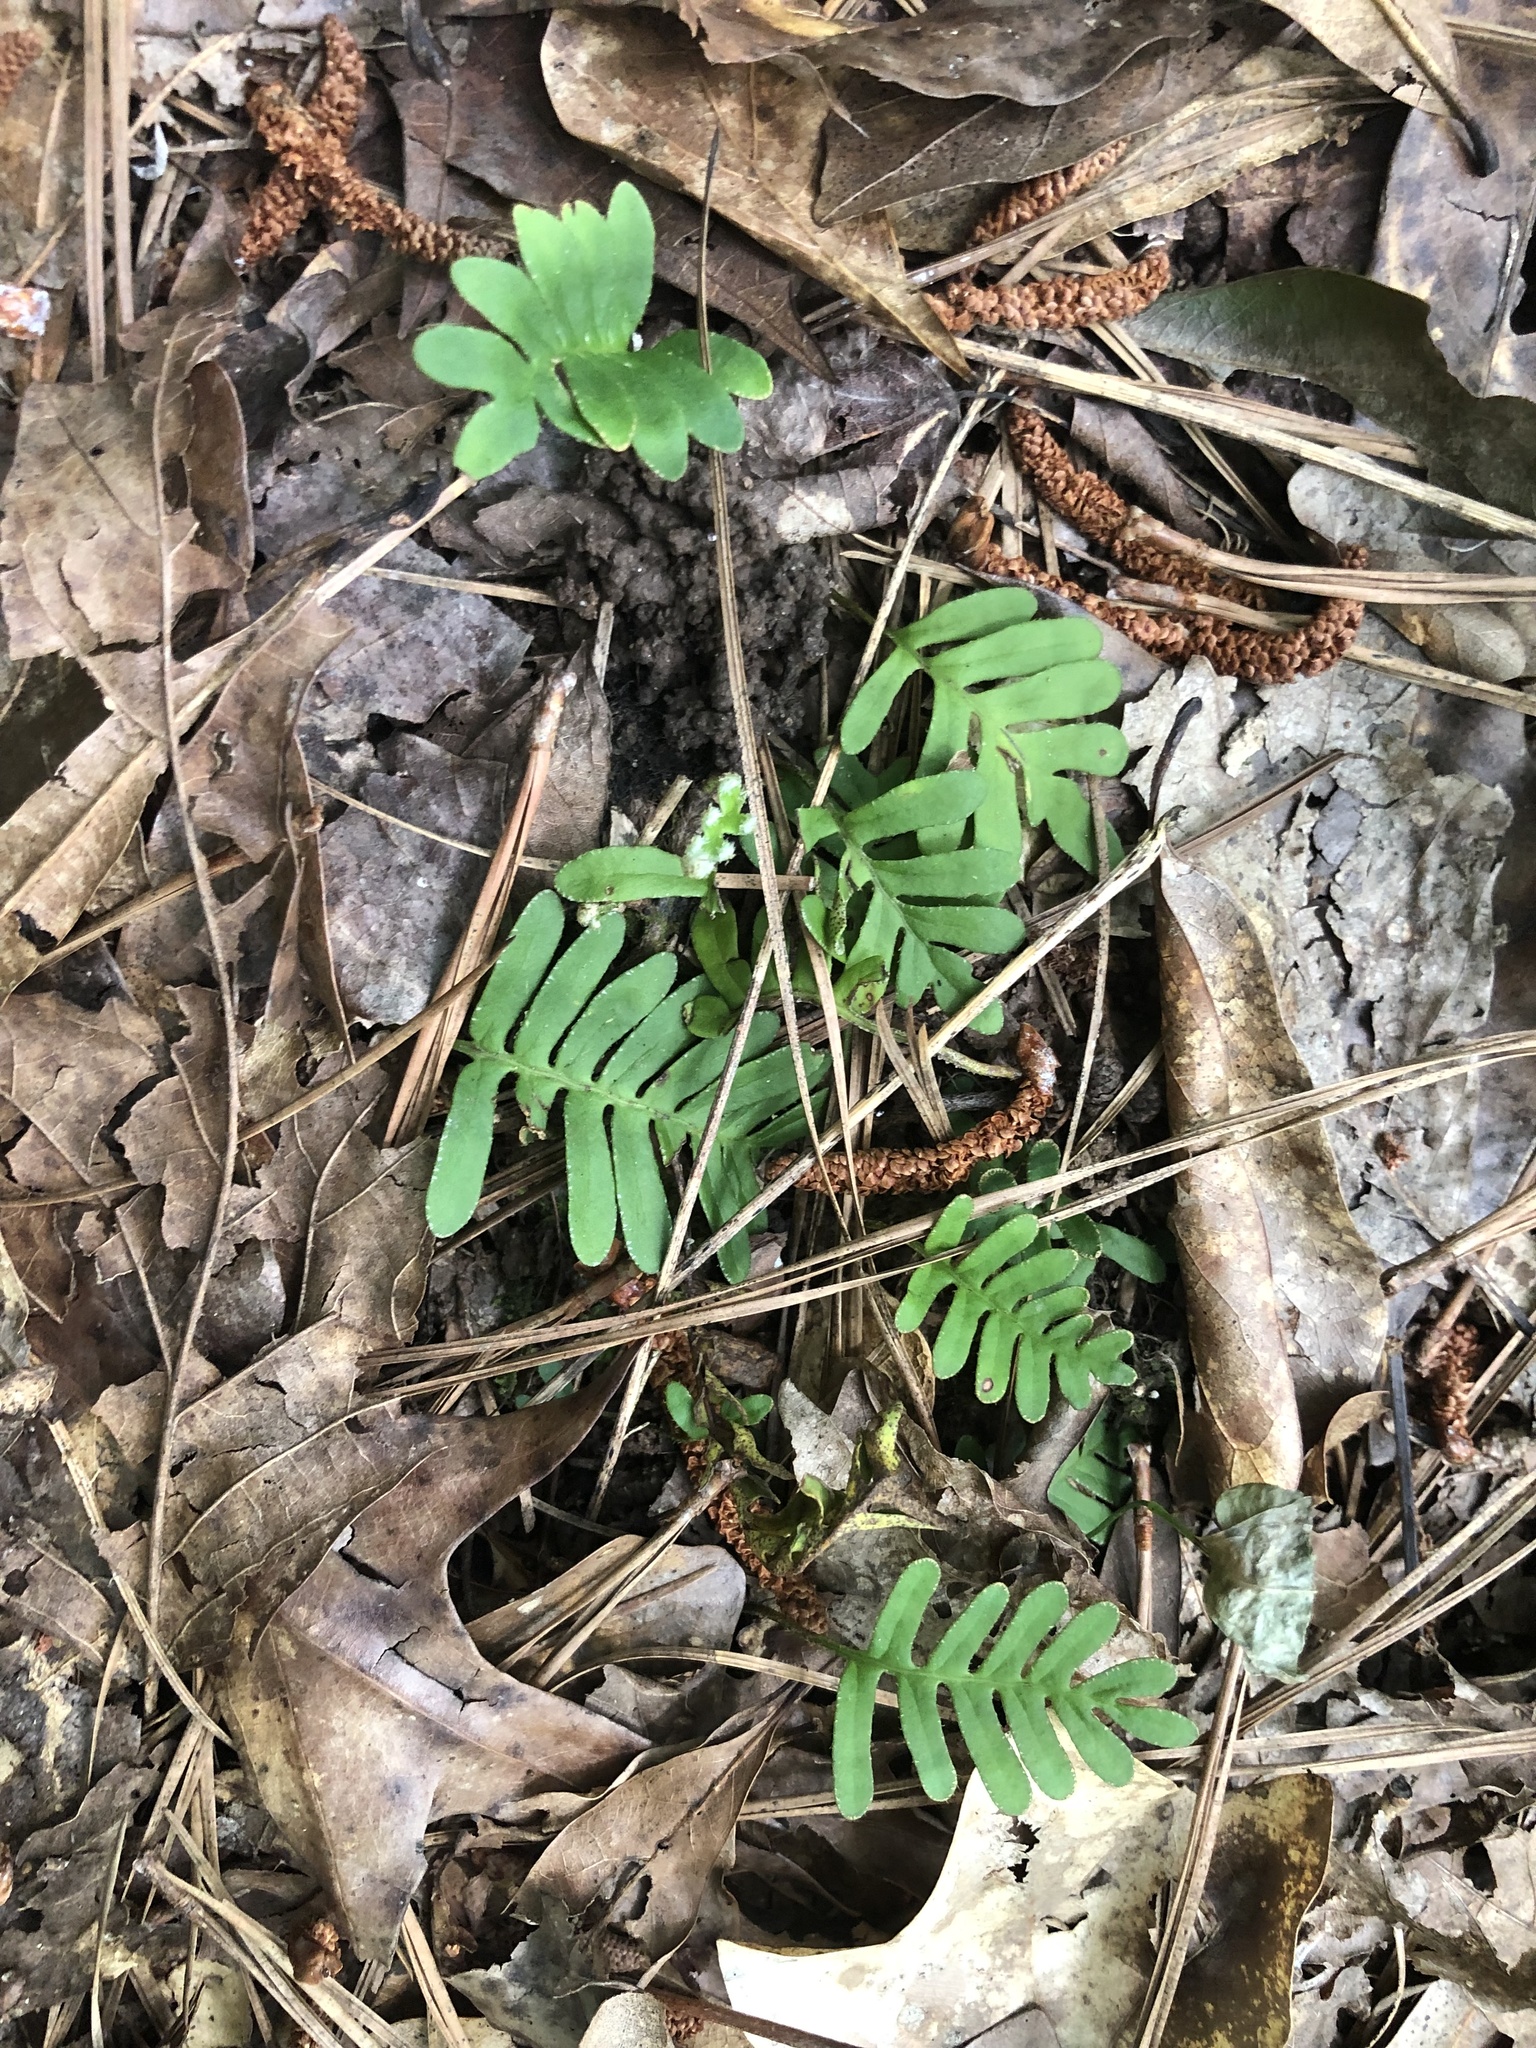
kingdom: Plantae
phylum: Tracheophyta
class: Polypodiopsida
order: Polypodiales
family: Polypodiaceae
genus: Pleopeltis
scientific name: Pleopeltis michauxiana
